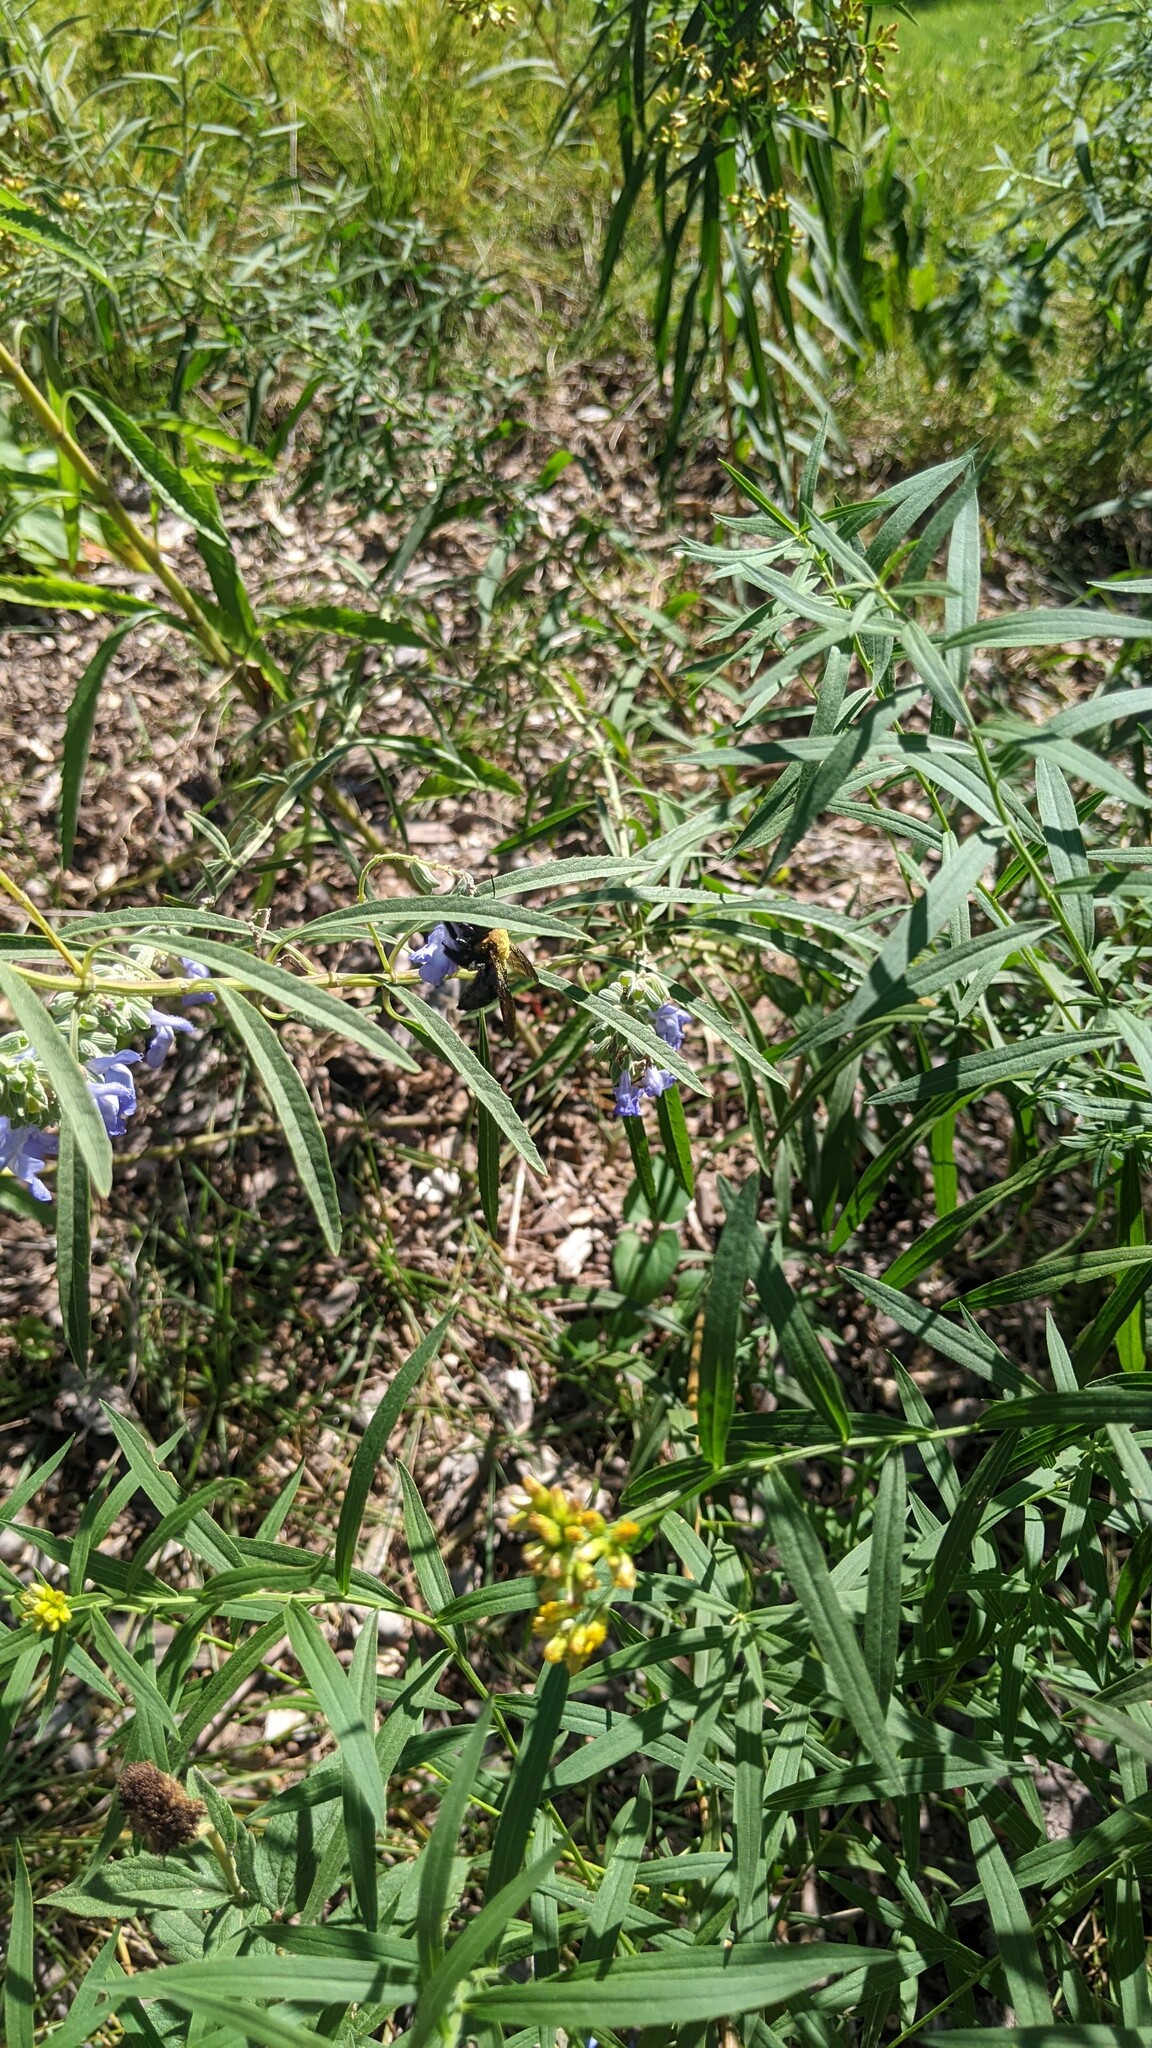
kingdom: Animalia
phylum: Arthropoda
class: Insecta
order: Hymenoptera
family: Apidae
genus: Xylocopa
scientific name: Xylocopa virginica
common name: Carpenter bee
